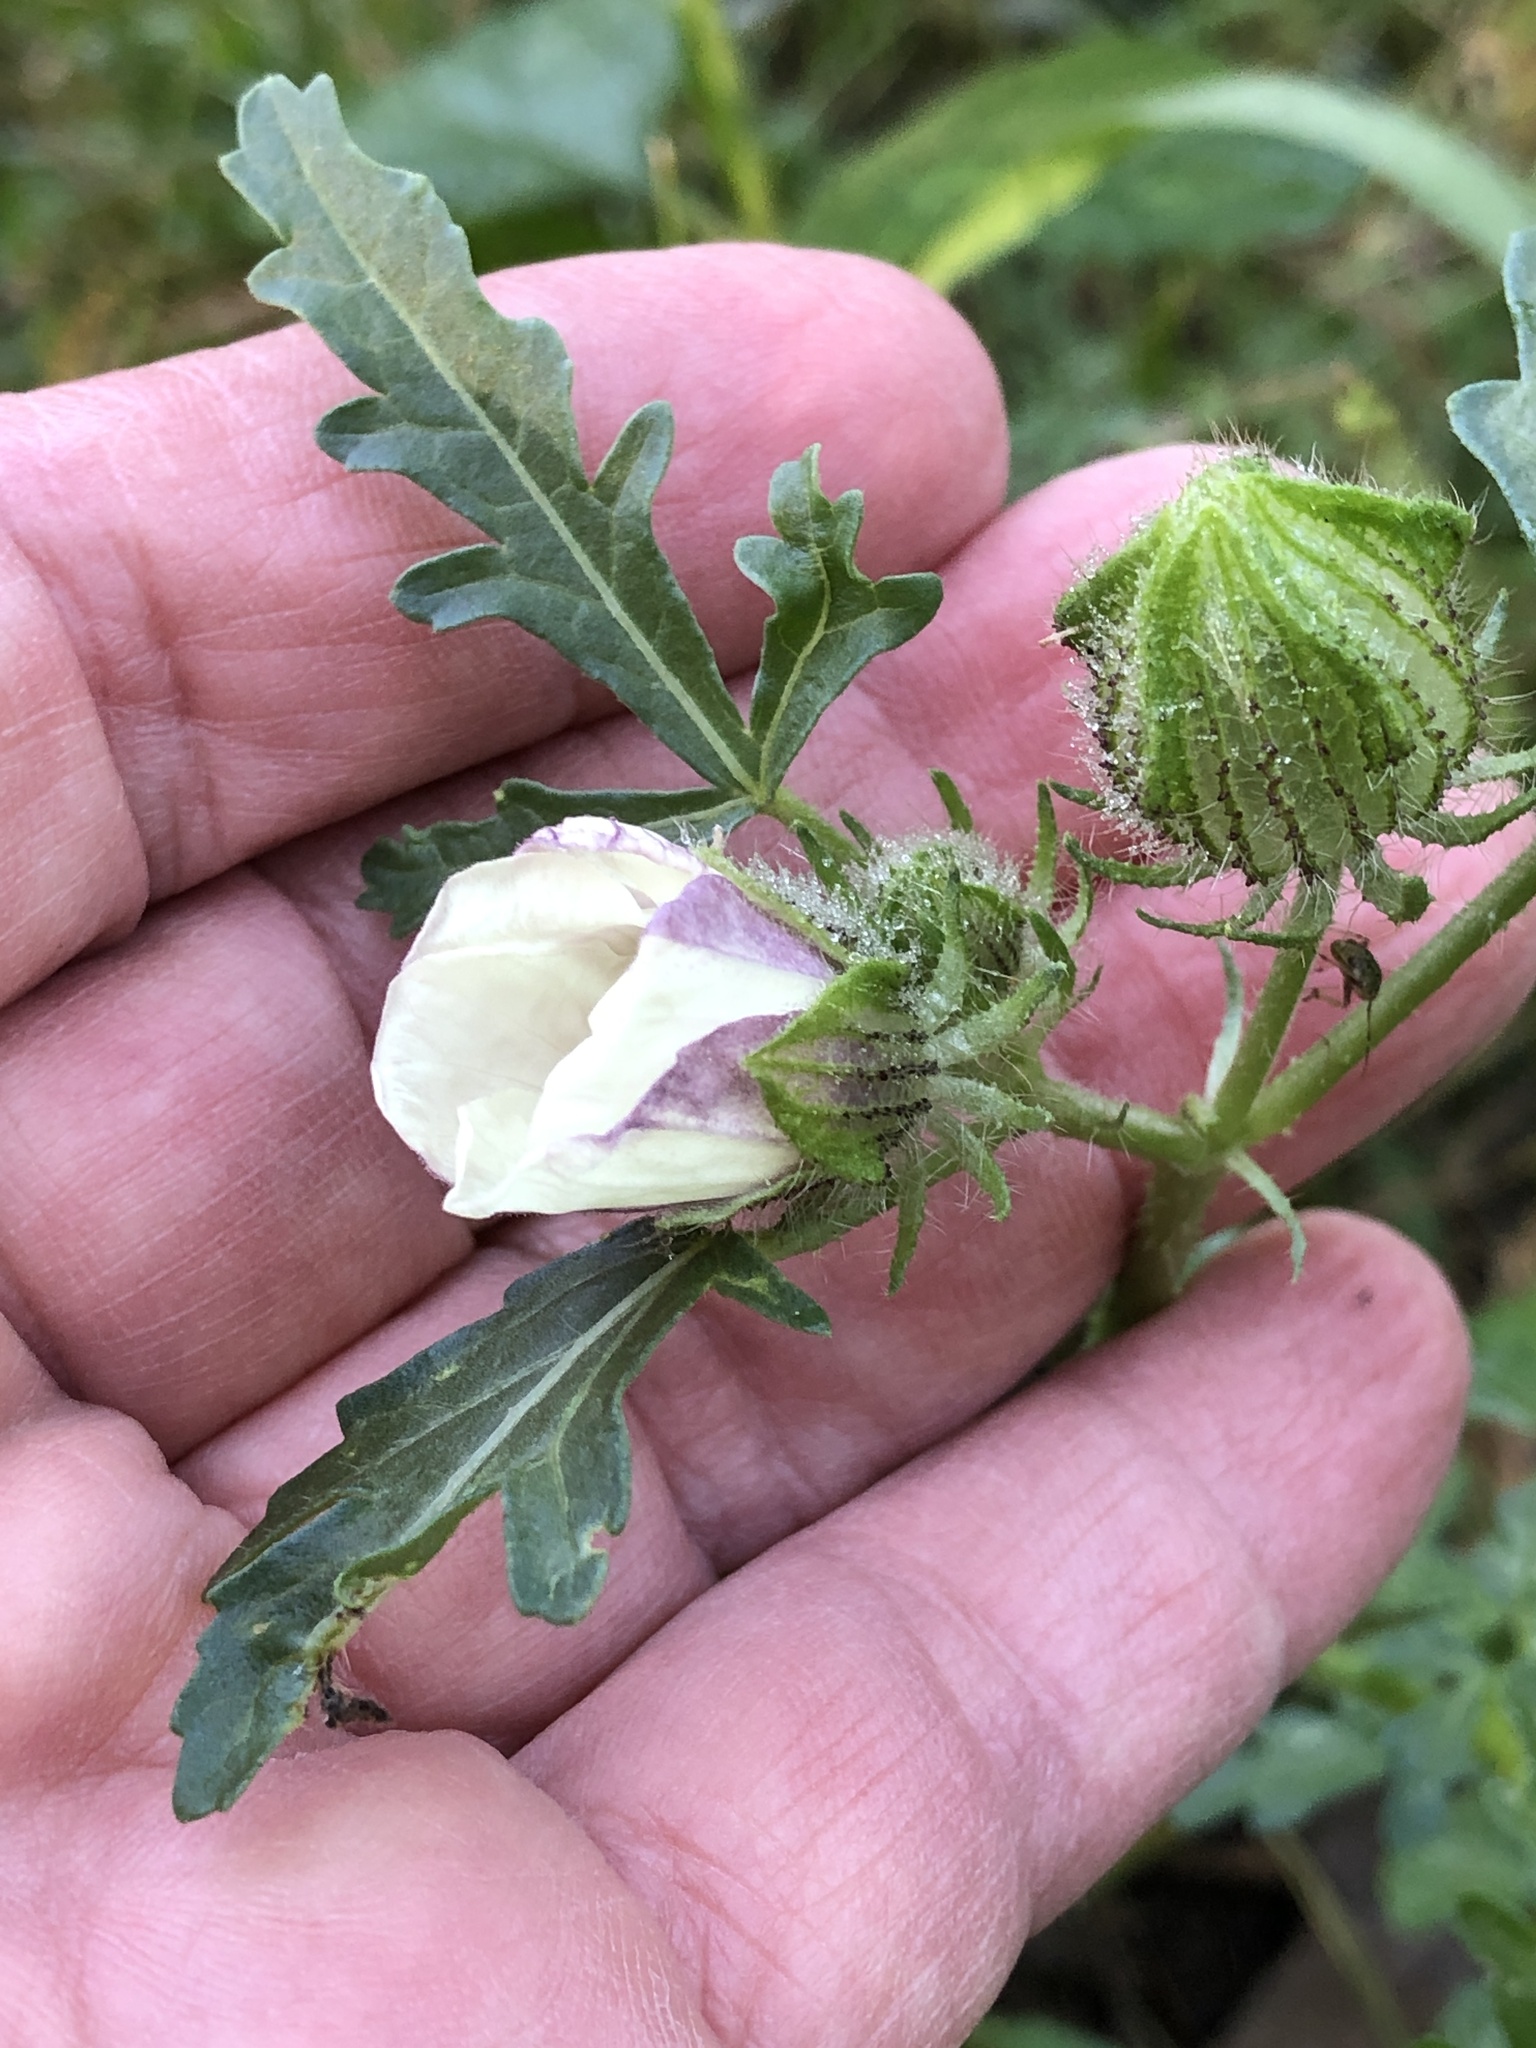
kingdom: Plantae
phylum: Tracheophyta
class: Magnoliopsida
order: Malvales
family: Malvaceae
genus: Hibiscus
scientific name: Hibiscus trionum
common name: Bladder ketmia
